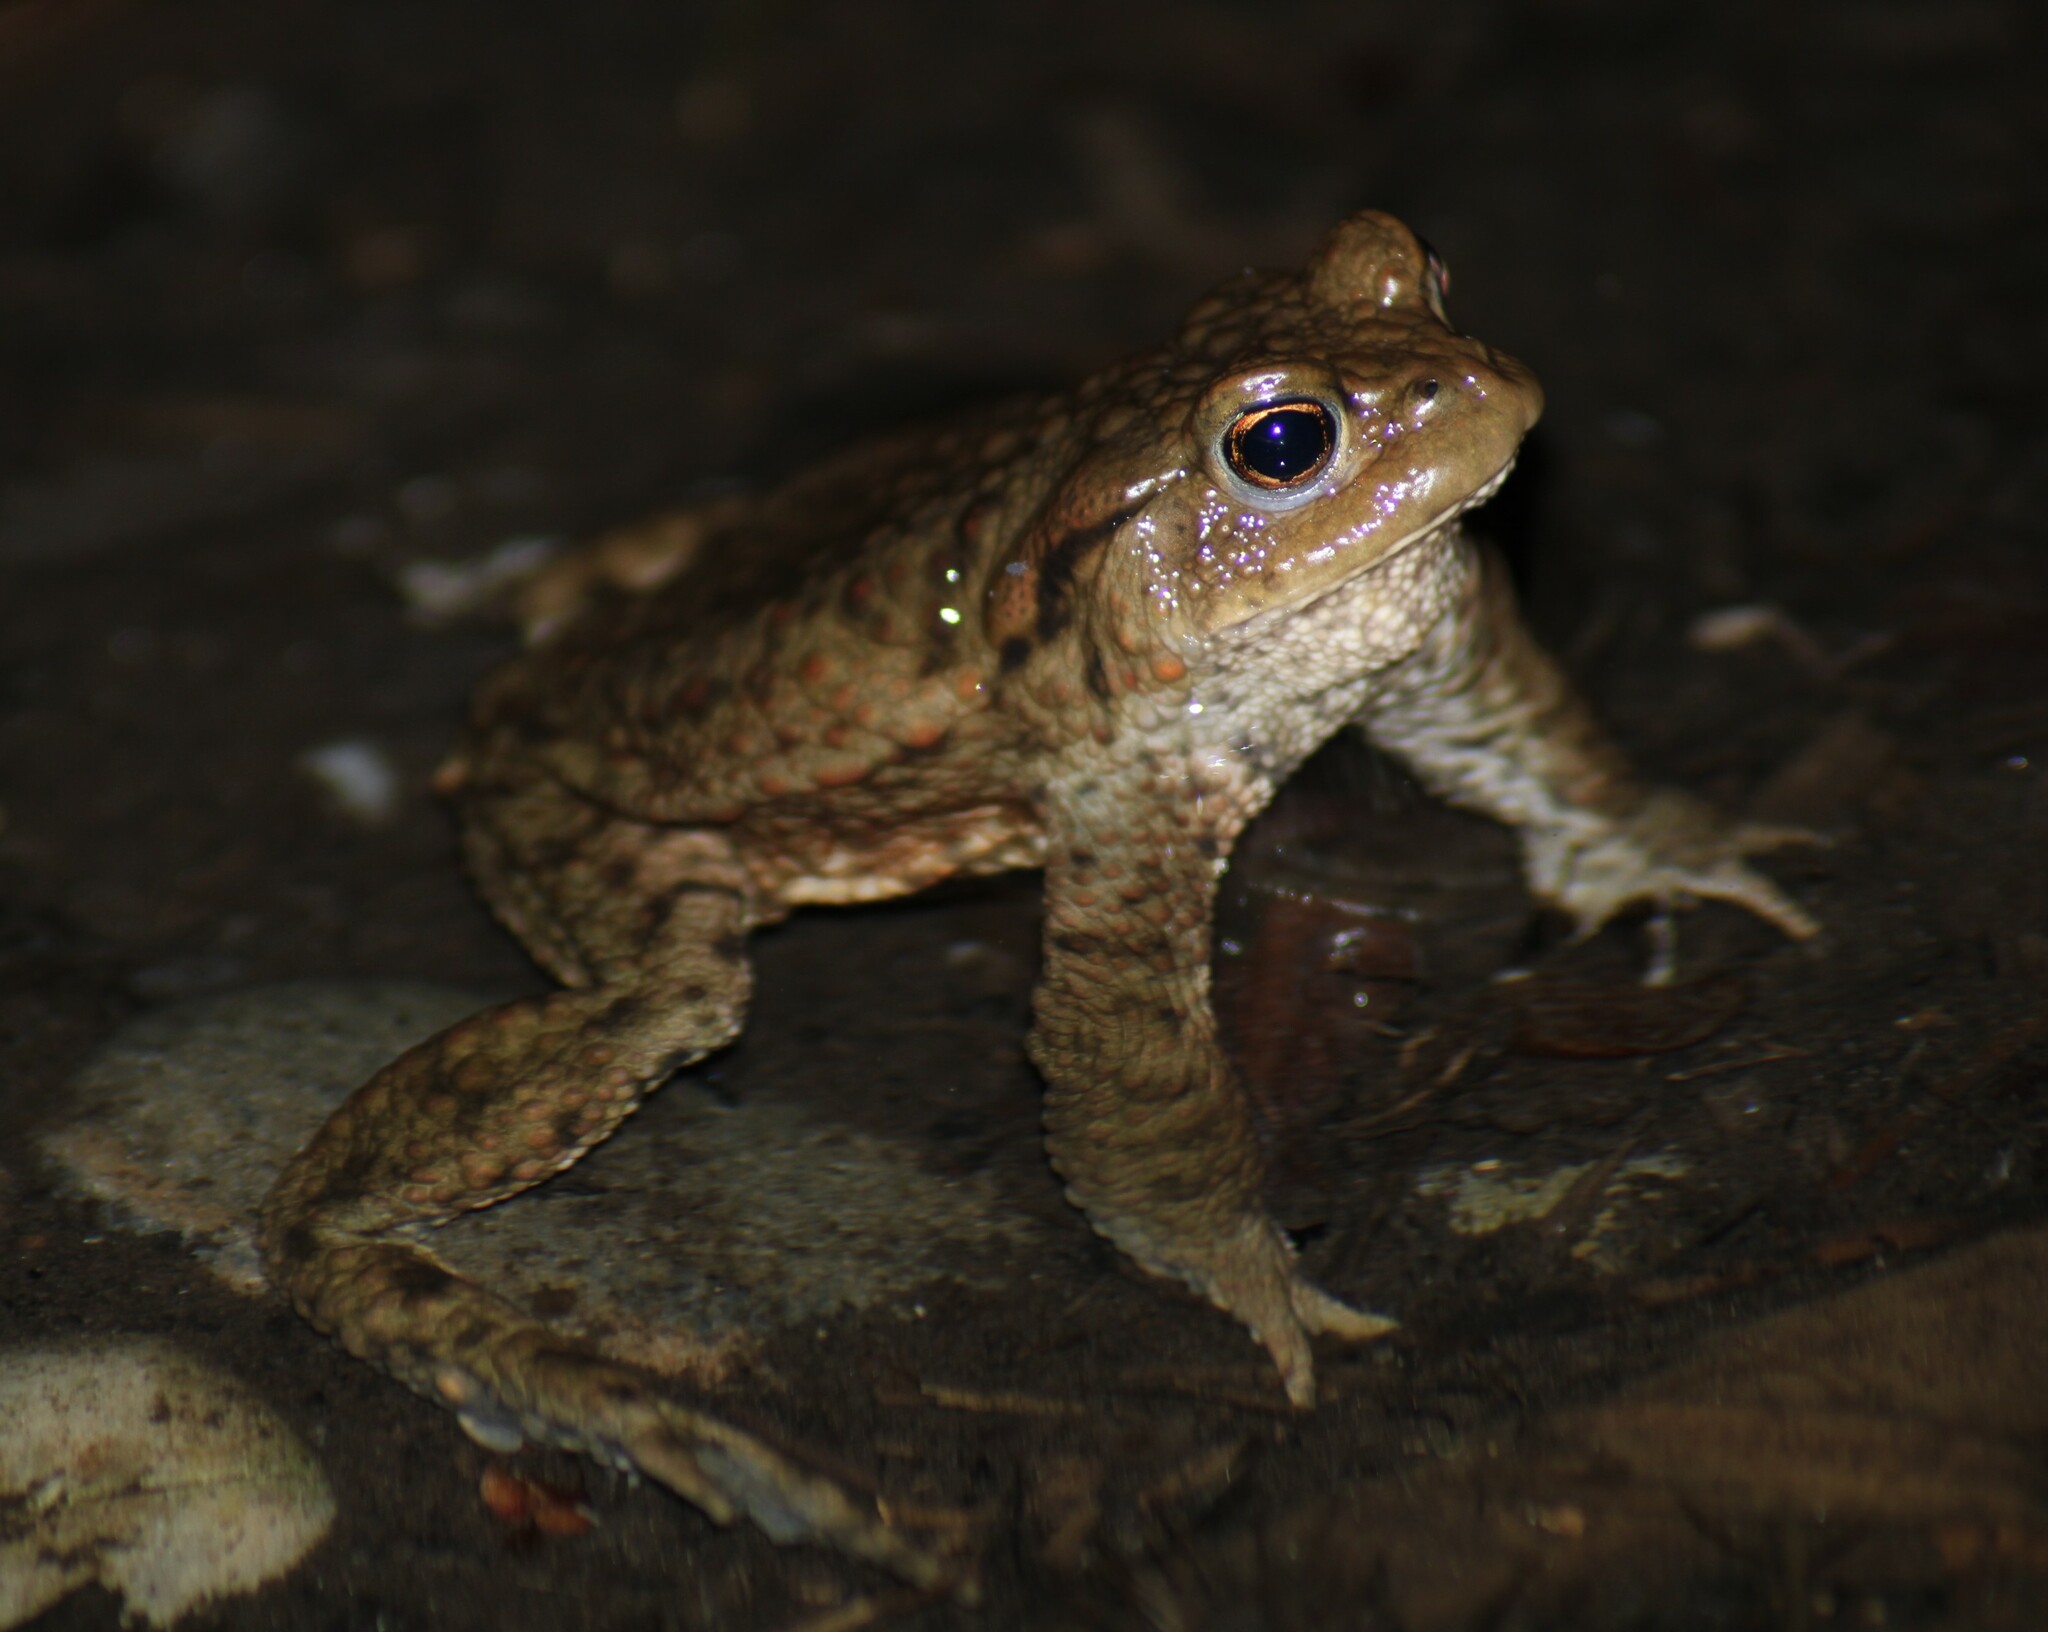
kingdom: Animalia
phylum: Chordata
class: Amphibia
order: Anura
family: Bufonidae
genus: Bufo
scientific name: Bufo bufo
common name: Common toad
